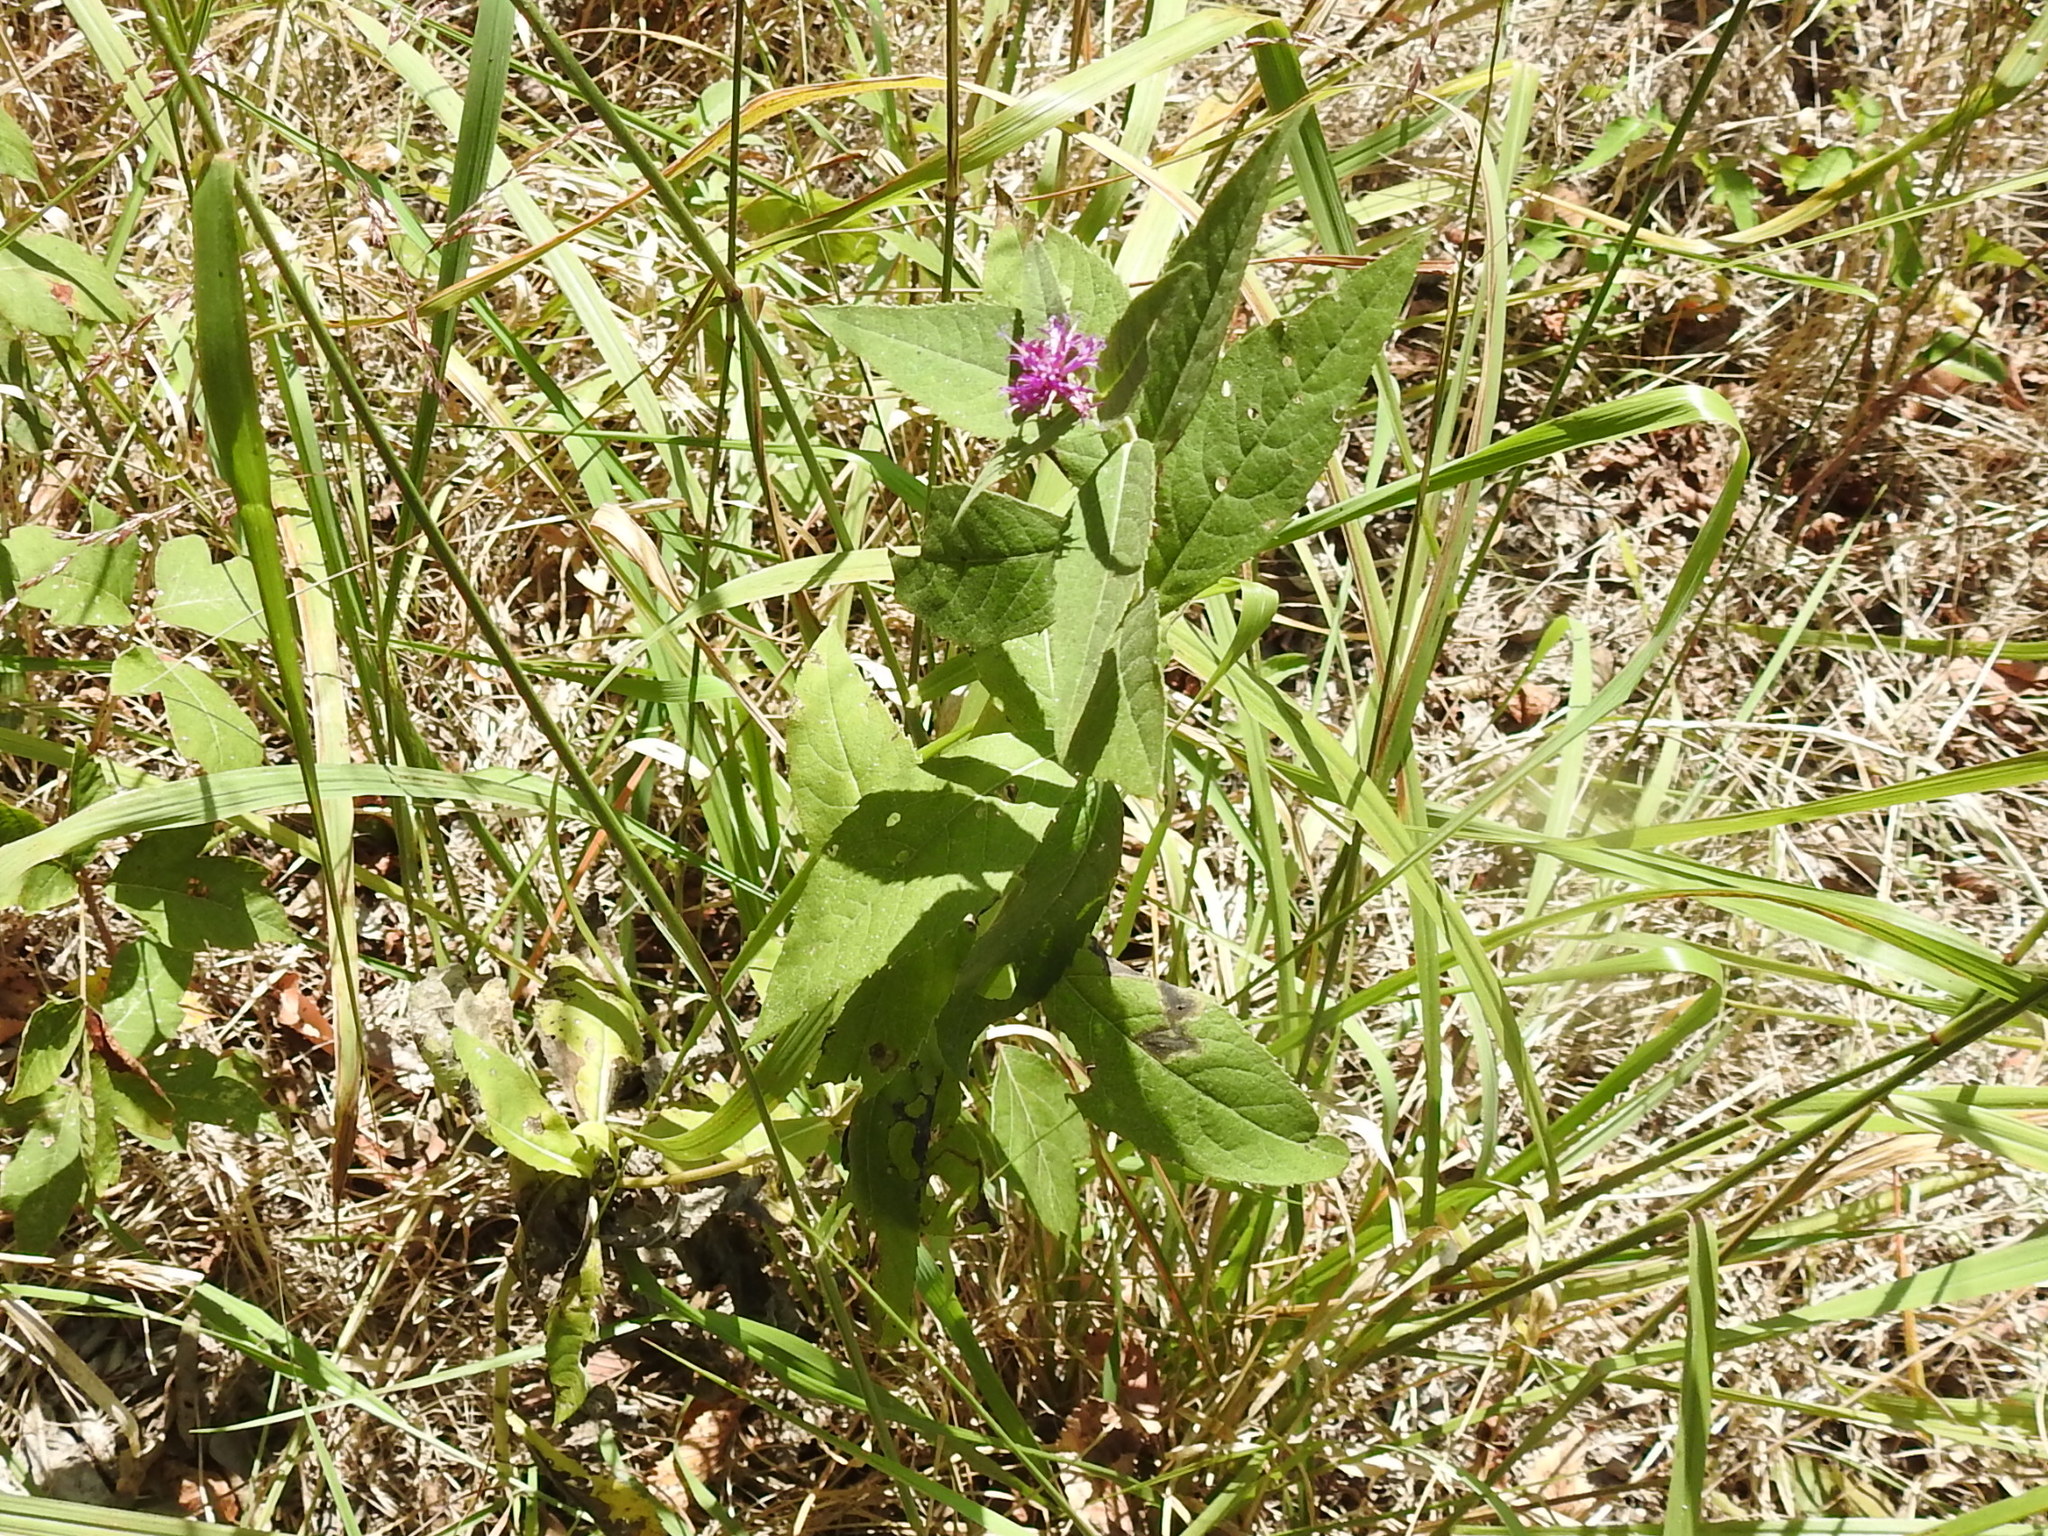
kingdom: Plantae
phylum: Tracheophyta
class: Magnoliopsida
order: Asterales
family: Asteraceae
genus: Vernonia
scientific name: Vernonia baldwinii
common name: Western ironweed
